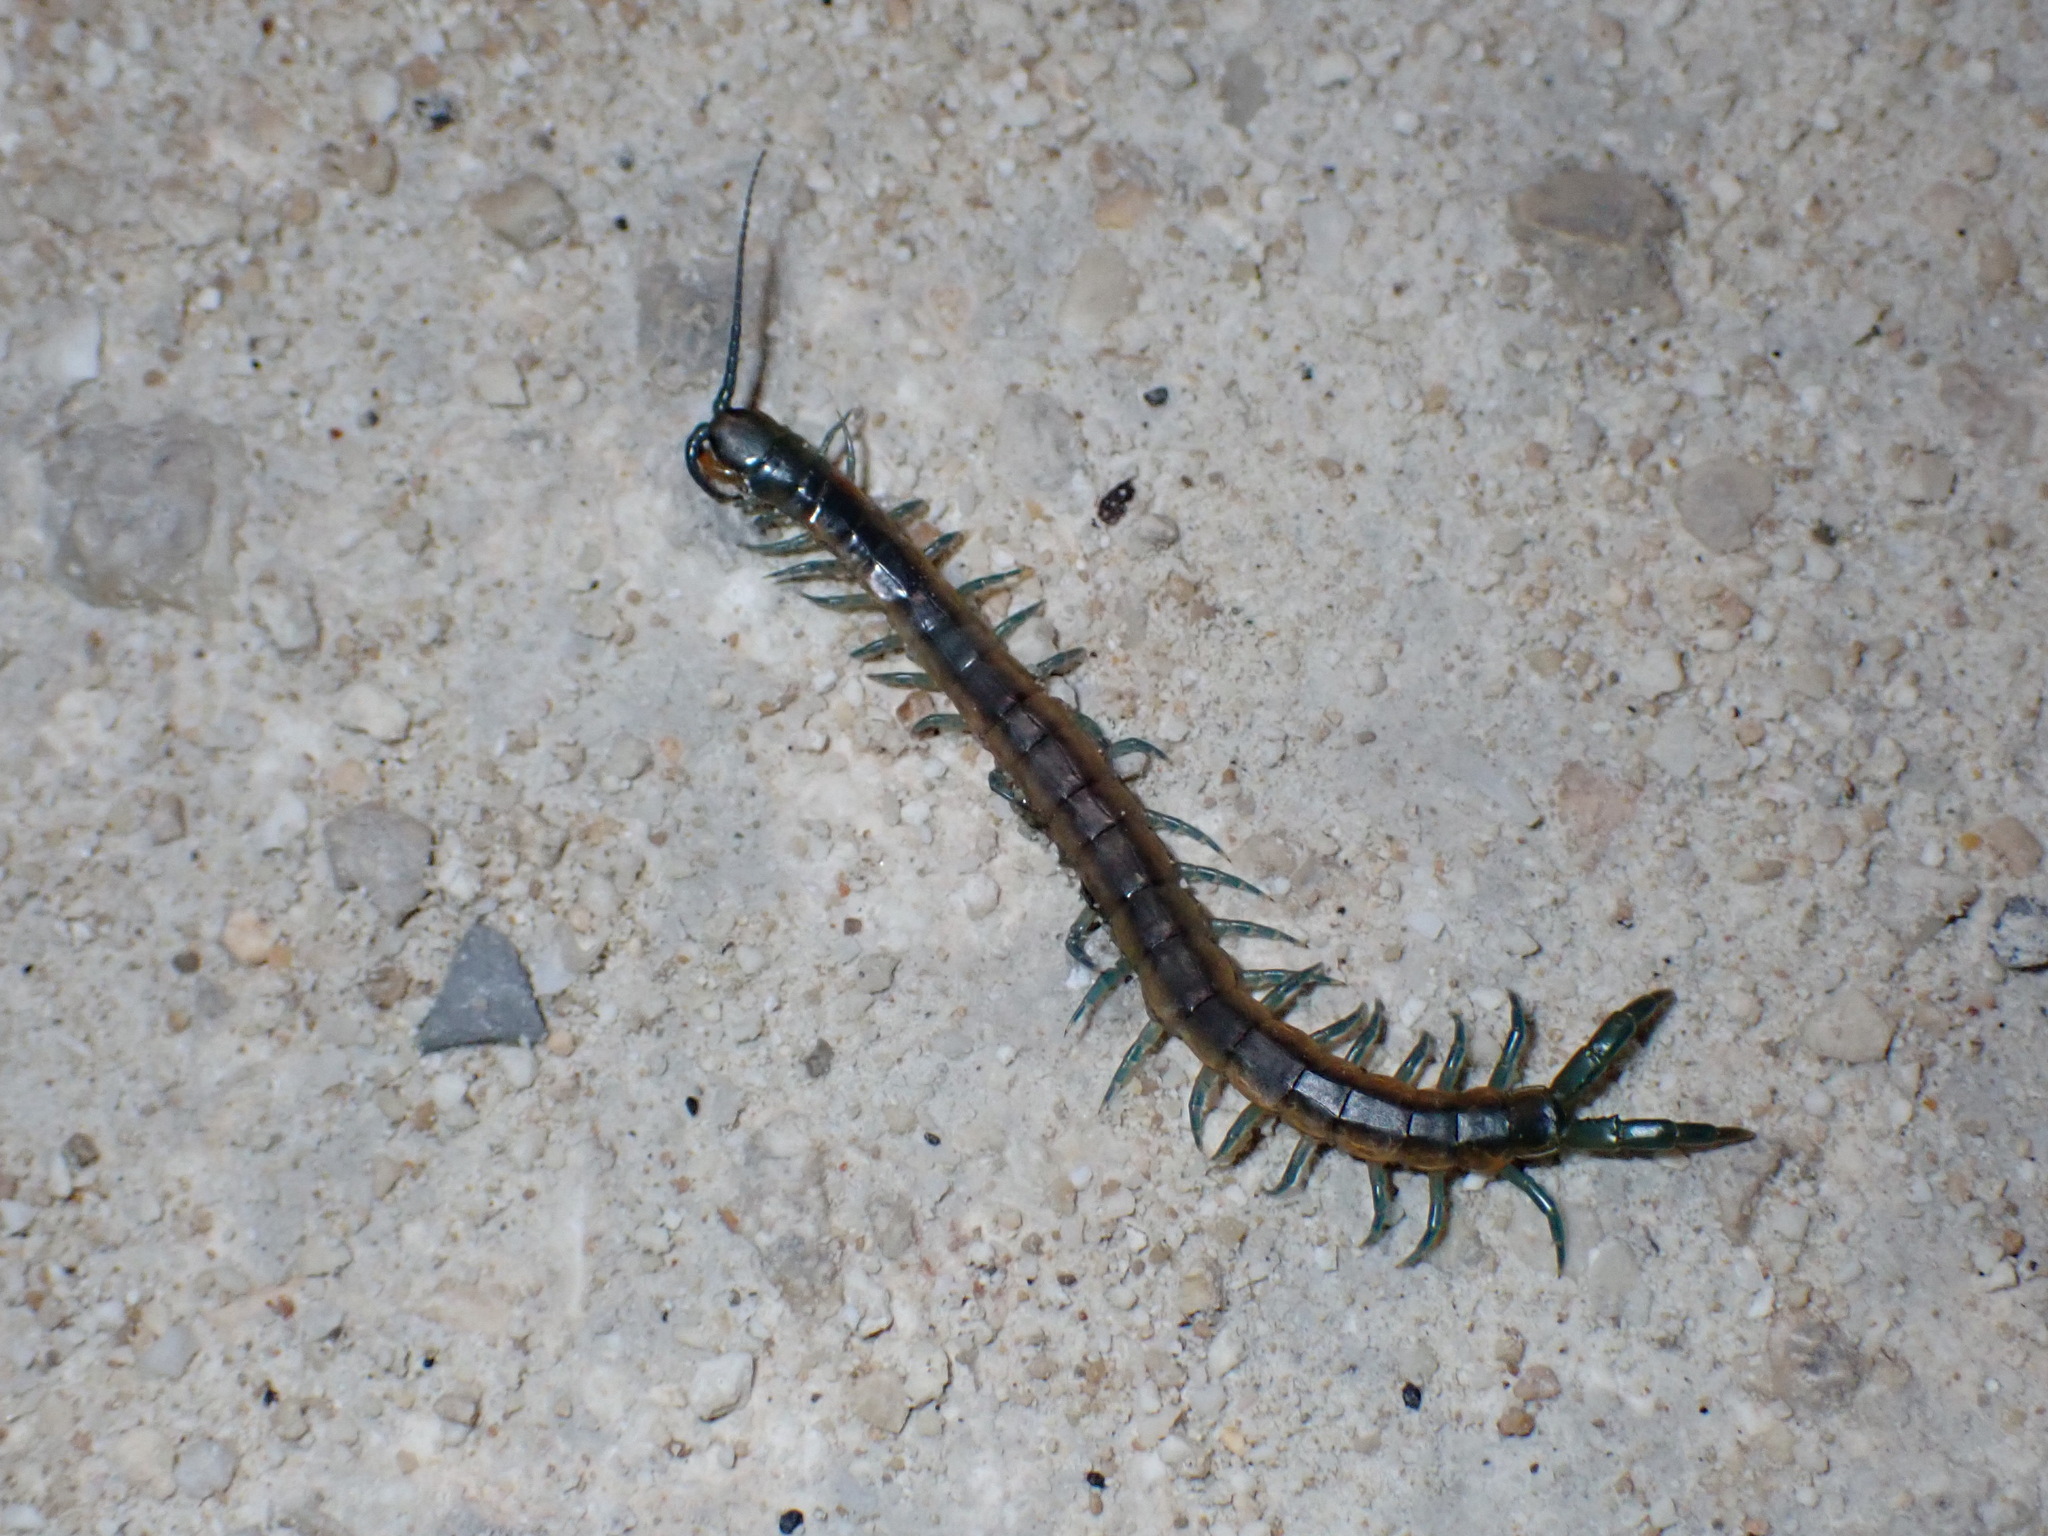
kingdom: Animalia
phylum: Arthropoda
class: Chilopoda
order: Scolopendromorpha
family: Scolopendridae
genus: Scolopendra
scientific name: Scolopendra viridis
